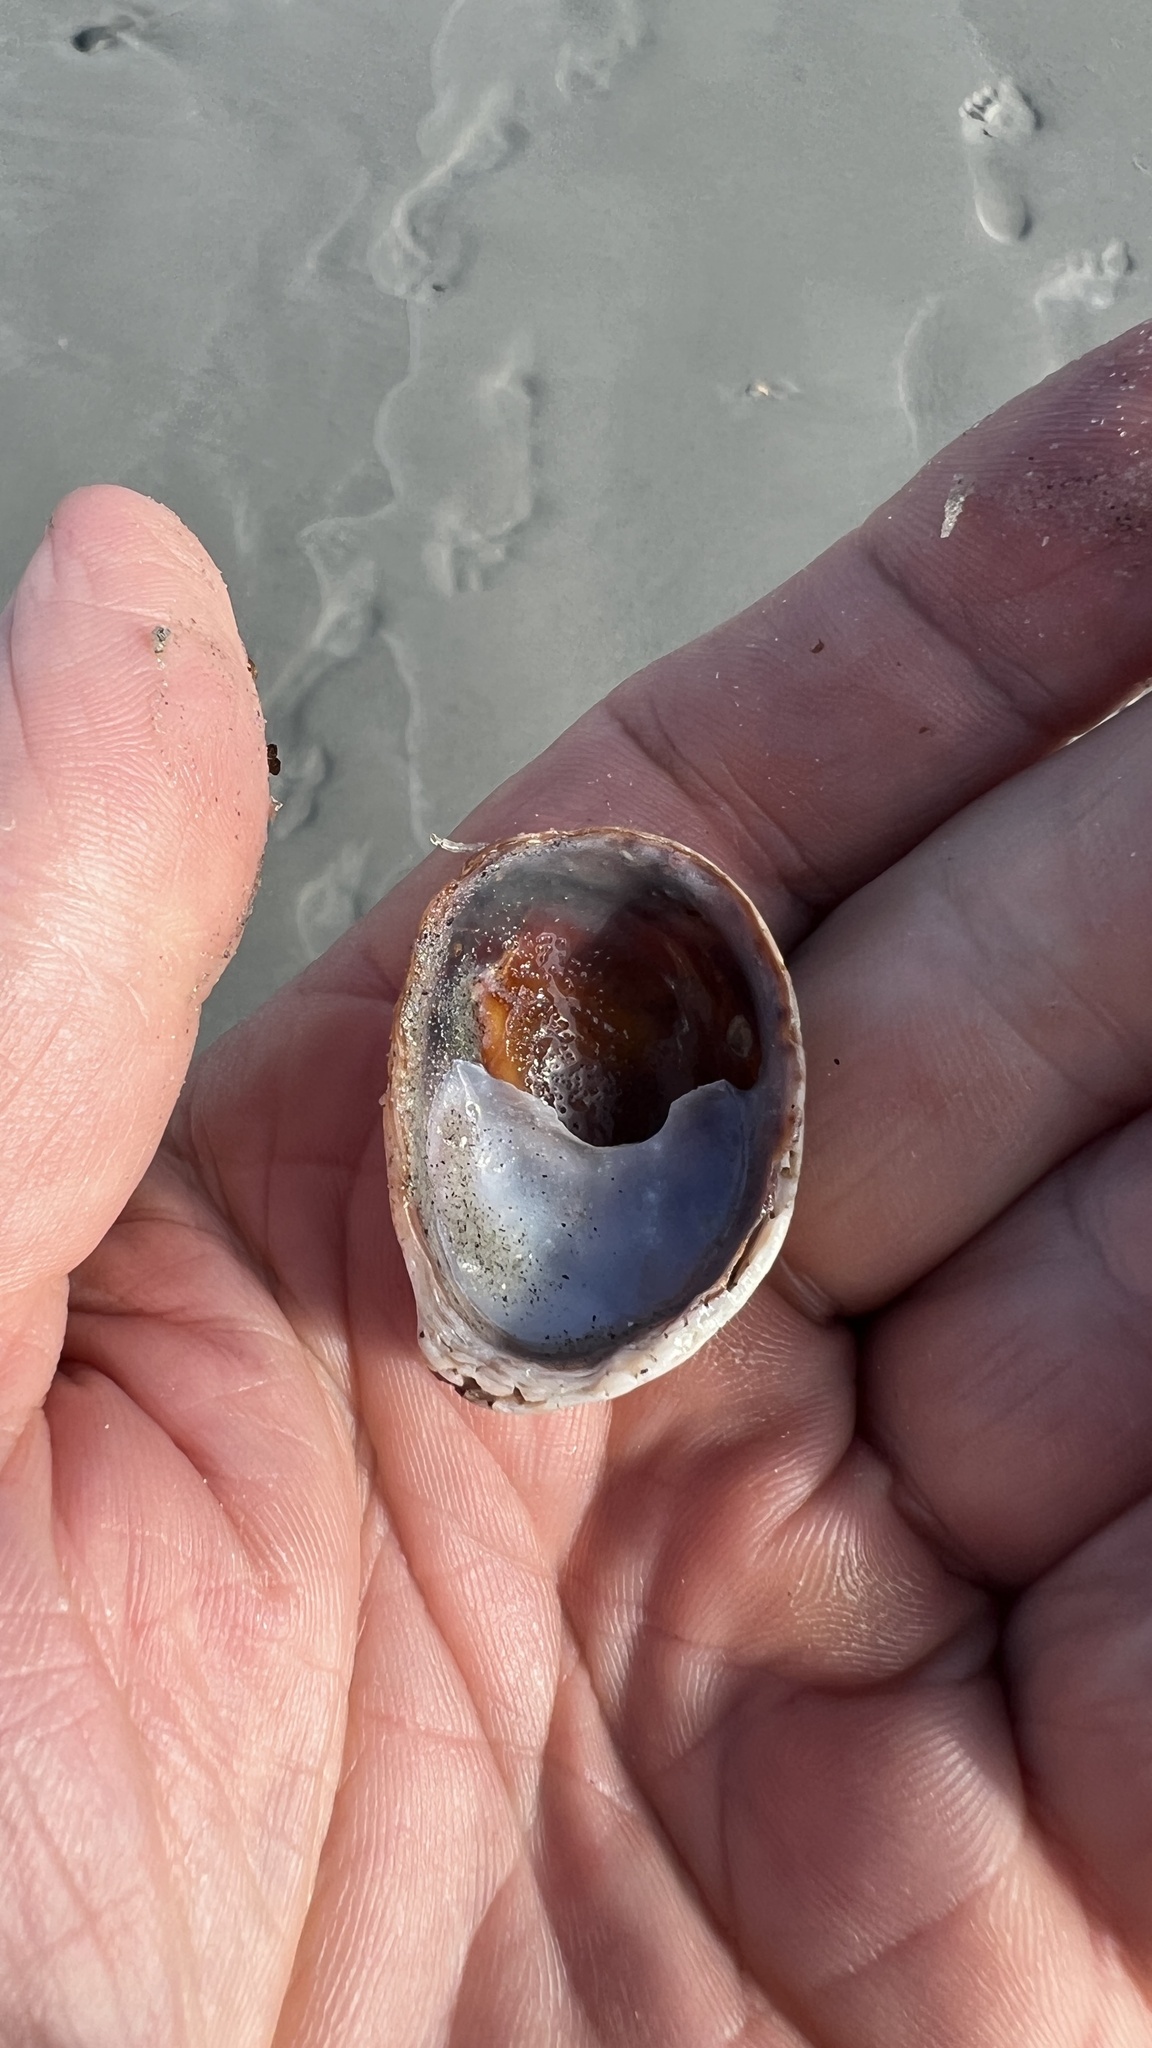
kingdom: Animalia
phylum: Mollusca
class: Gastropoda
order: Littorinimorpha
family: Calyptraeidae
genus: Crepidula
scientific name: Crepidula fornicata
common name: Slipper limpet
